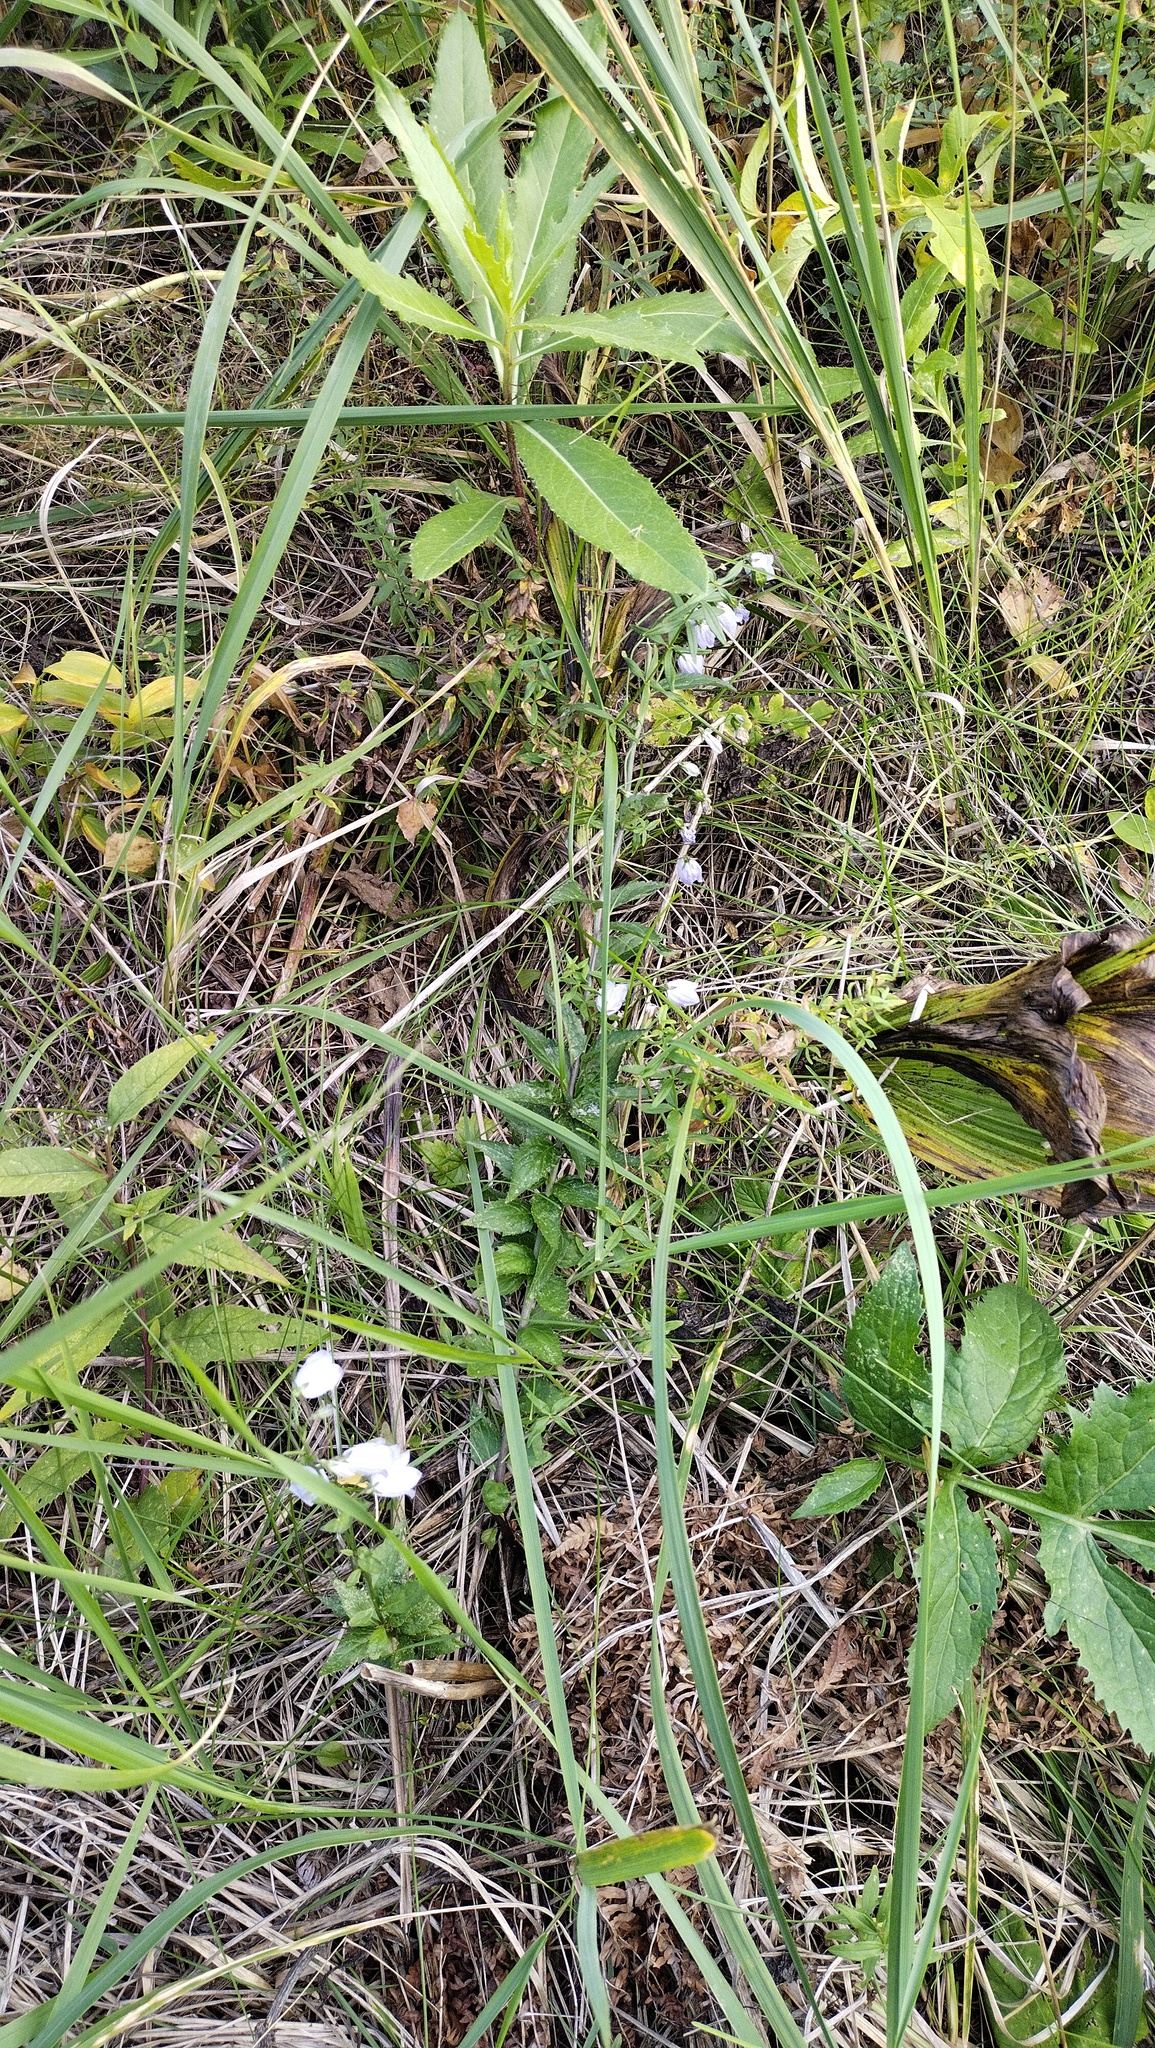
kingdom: Plantae
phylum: Tracheophyta
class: Magnoliopsida
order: Asterales
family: Campanulaceae
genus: Adenophora
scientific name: Adenophora liliifolia
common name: Lilyleaf ladybells
